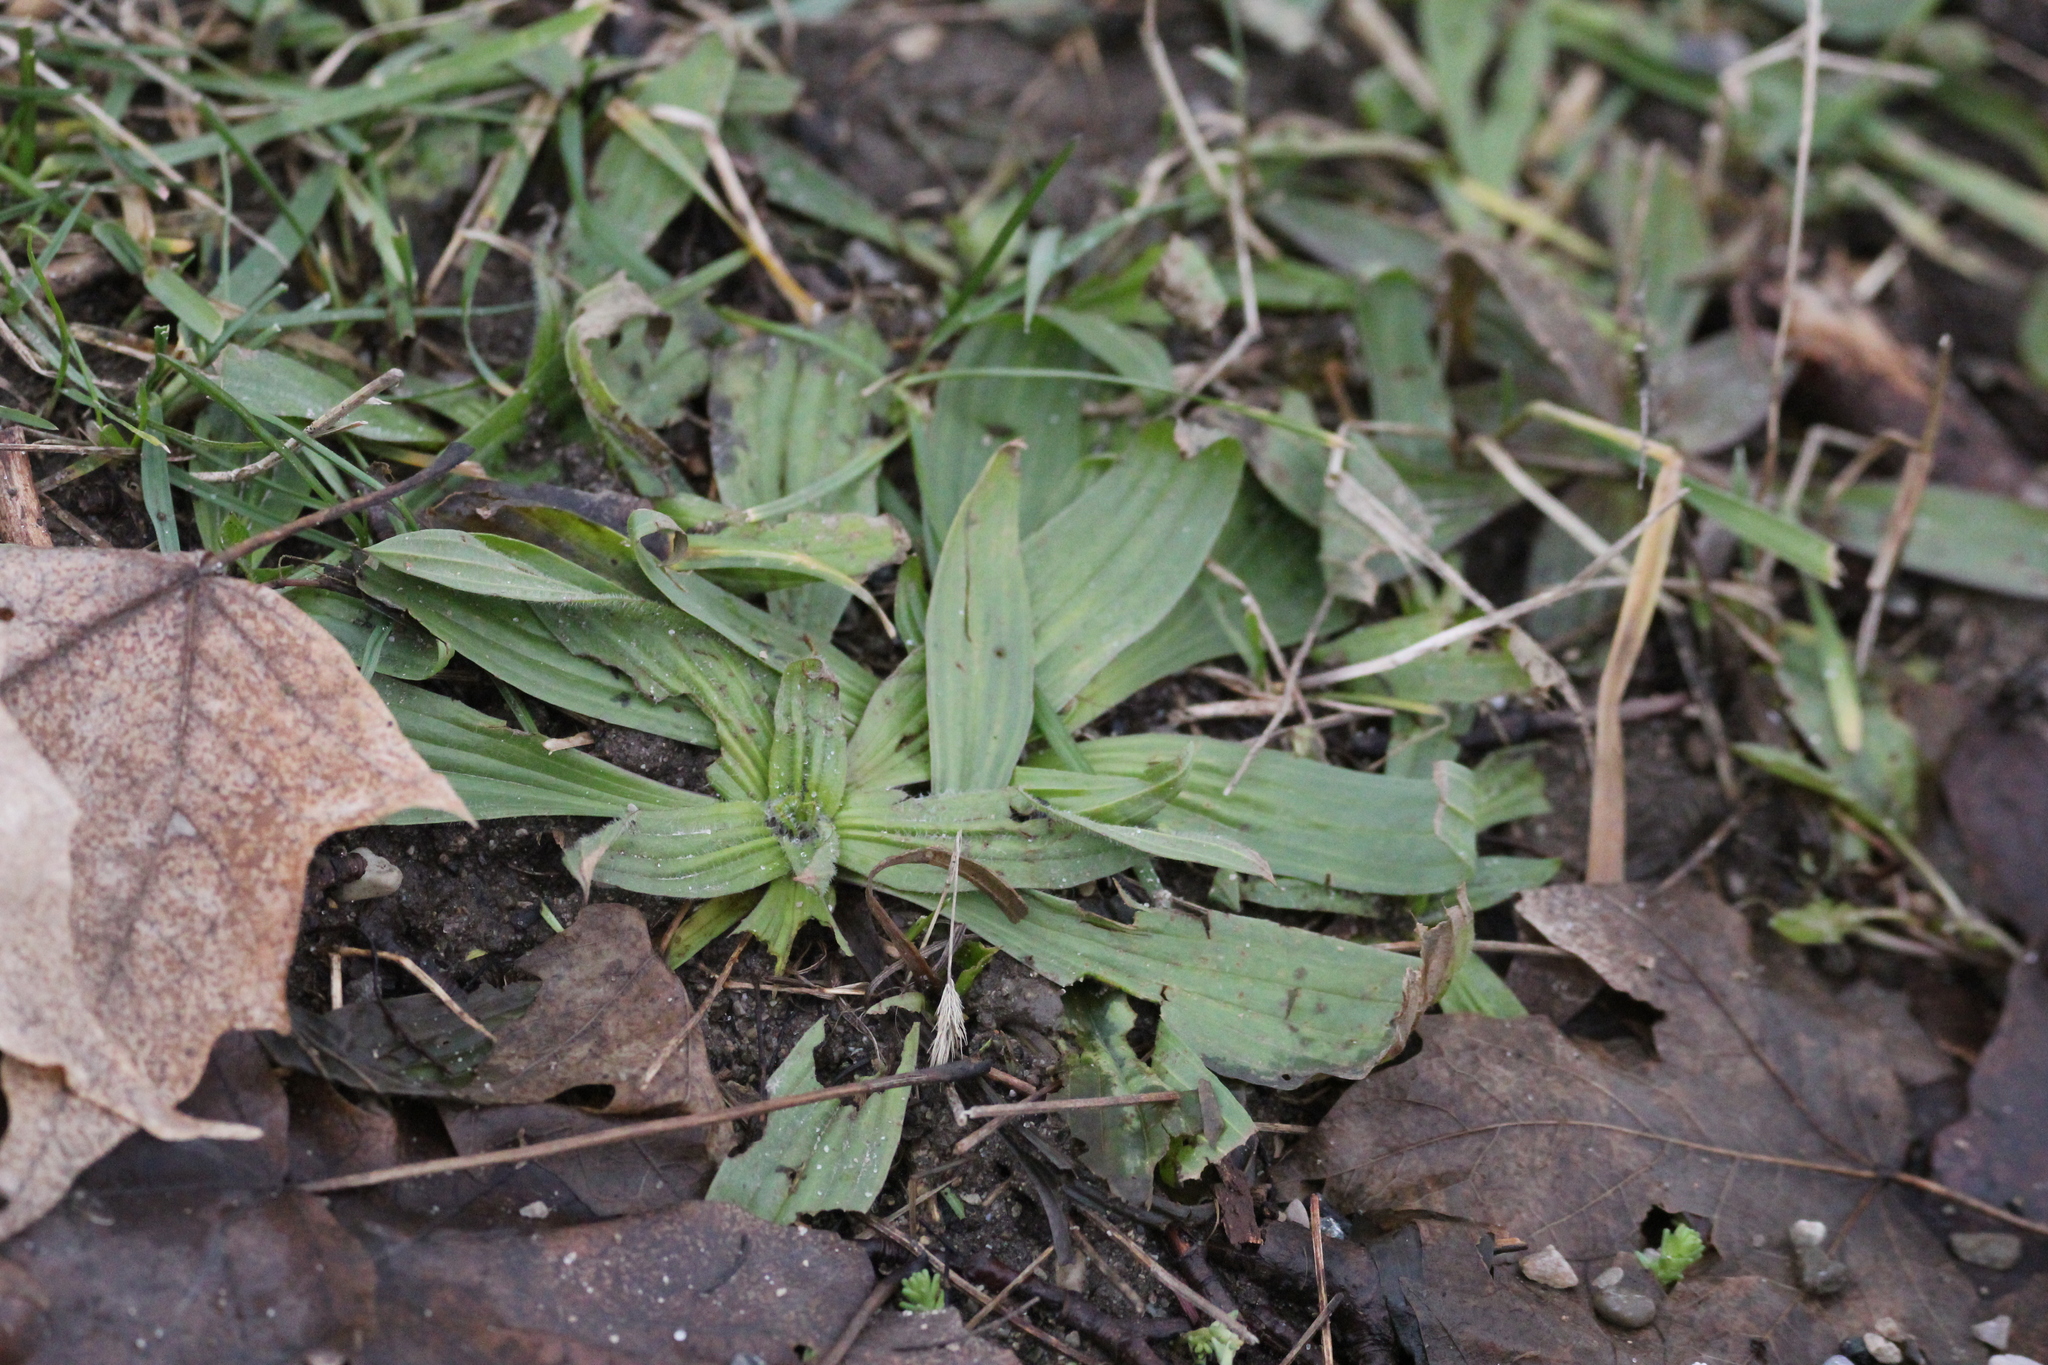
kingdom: Plantae
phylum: Tracheophyta
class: Magnoliopsida
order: Lamiales
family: Plantaginaceae
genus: Plantago
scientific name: Plantago lanceolata
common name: Ribwort plantain
